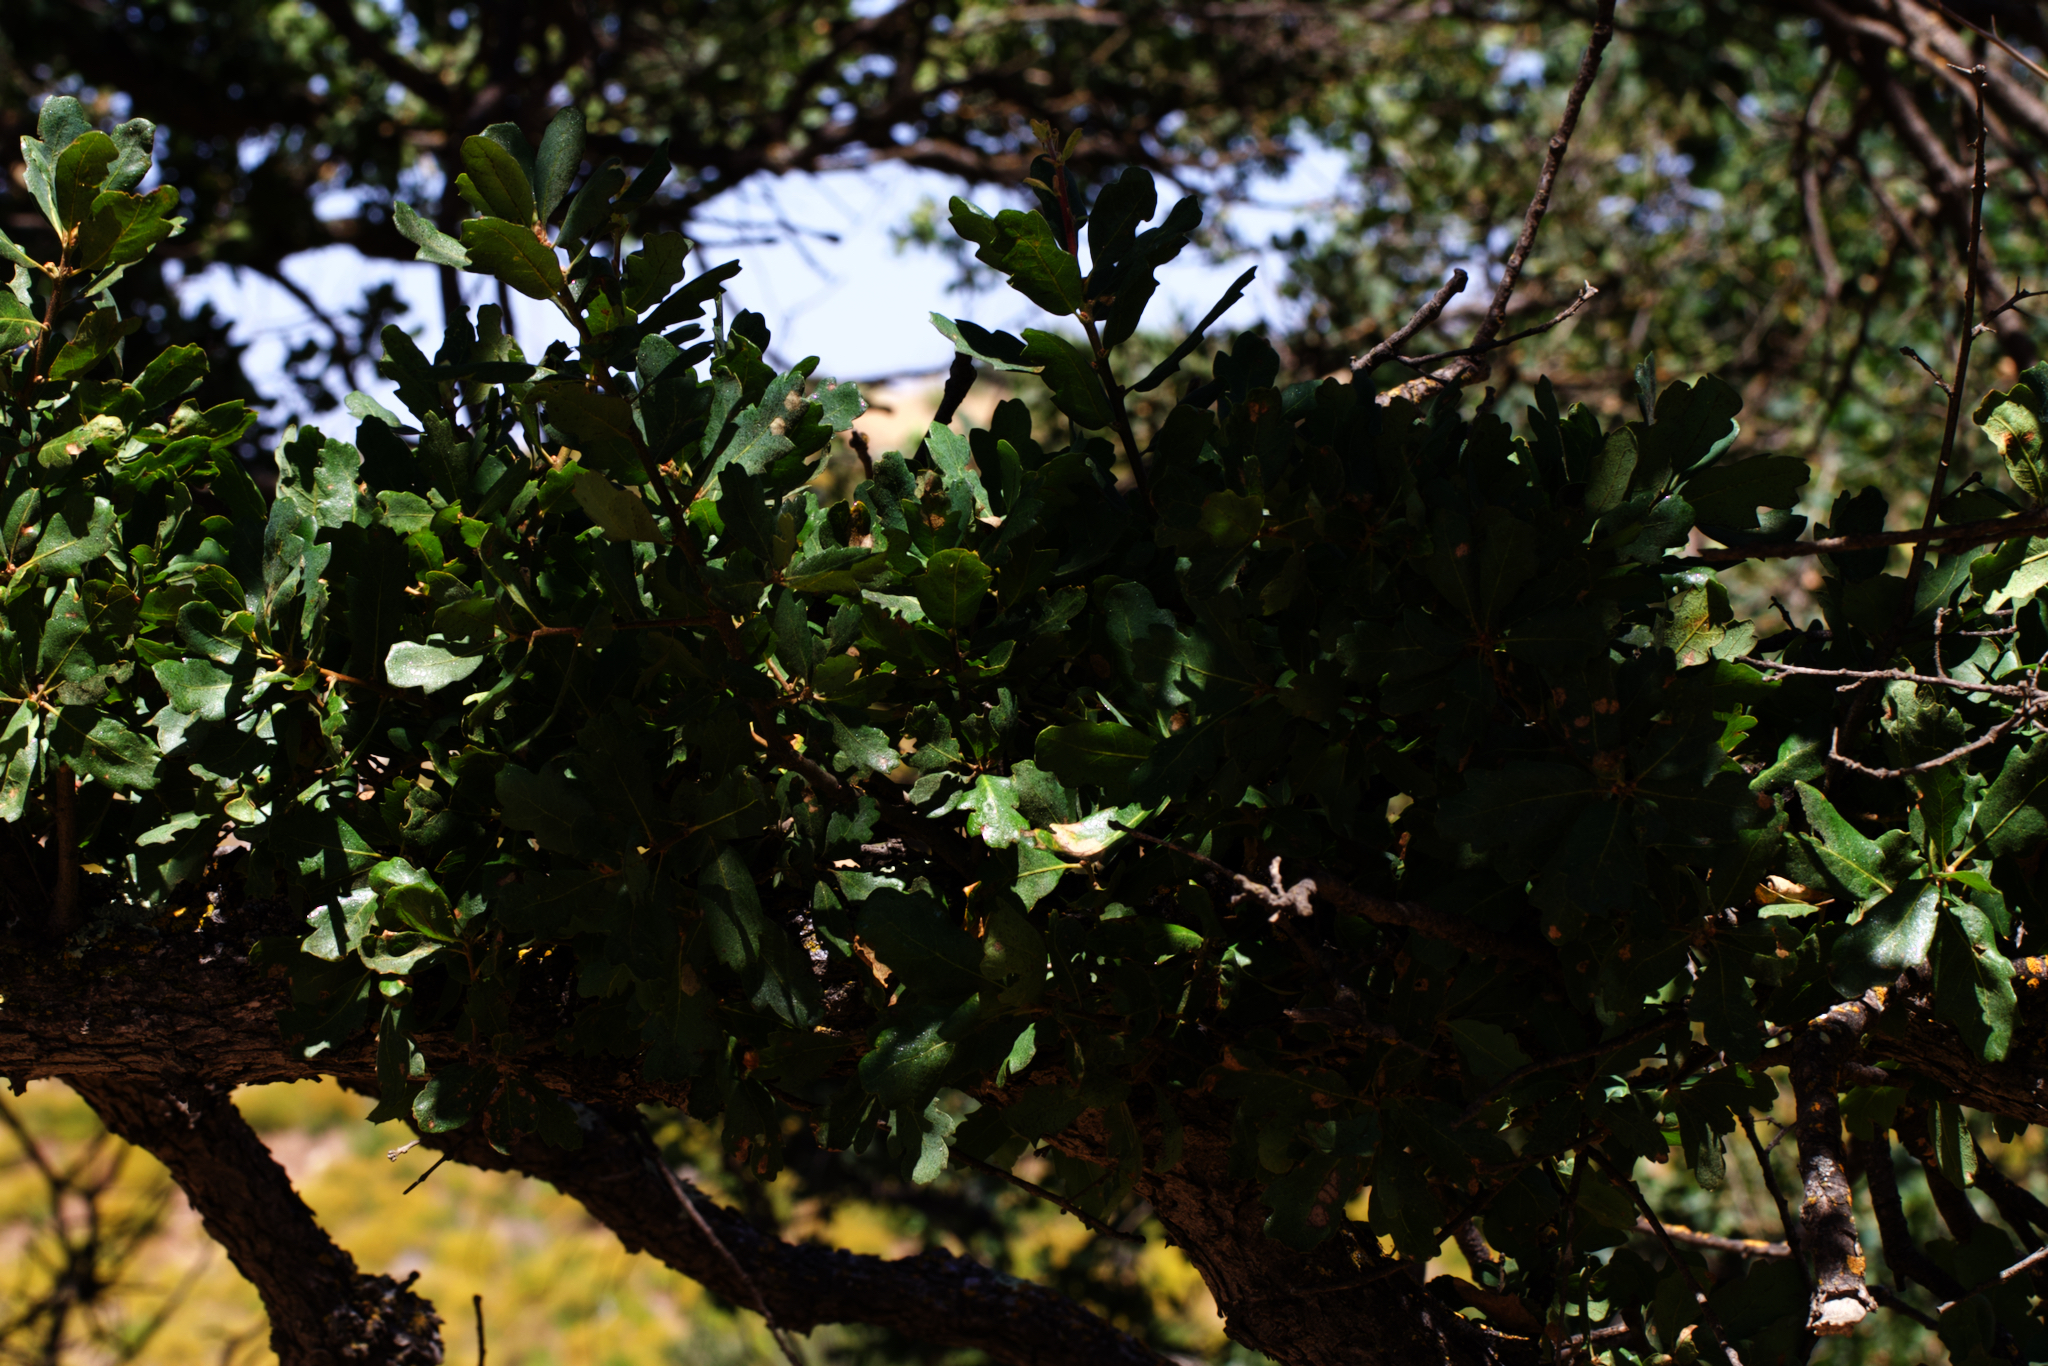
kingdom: Plantae
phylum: Tracheophyta
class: Magnoliopsida
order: Fagales
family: Fagaceae
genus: Quercus
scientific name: Quercus douglasii
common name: Blue oak
